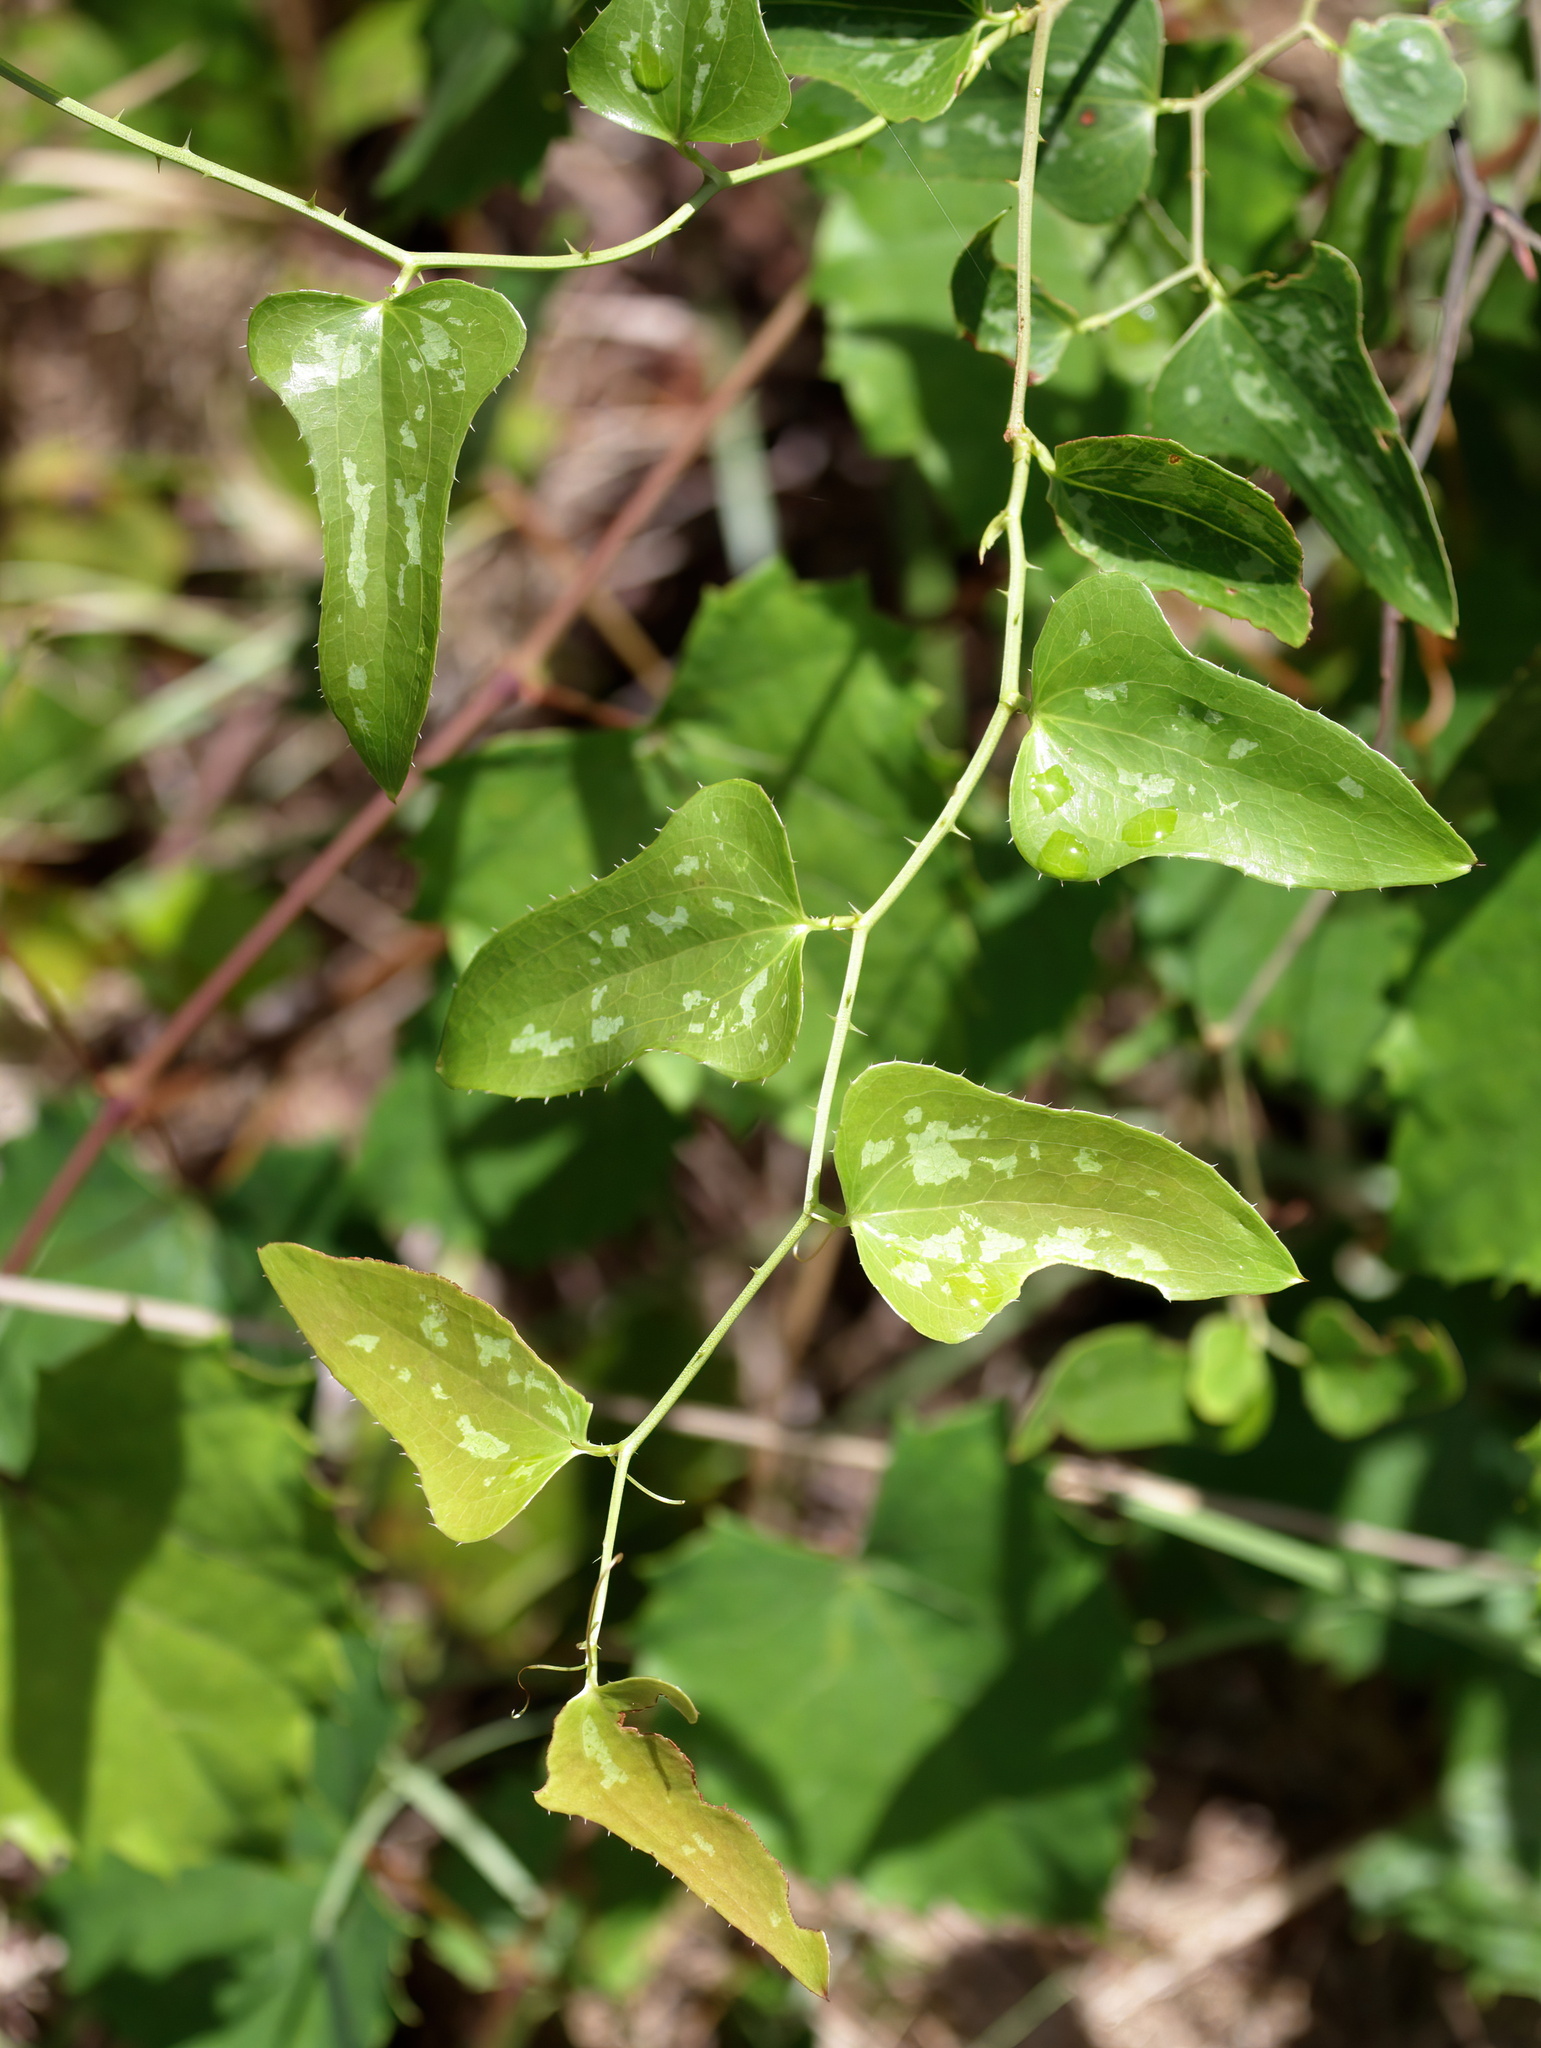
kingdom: Plantae
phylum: Tracheophyta
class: Liliopsida
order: Liliales
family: Smilacaceae
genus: Smilax
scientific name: Smilax bona-nox
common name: Catbrier
